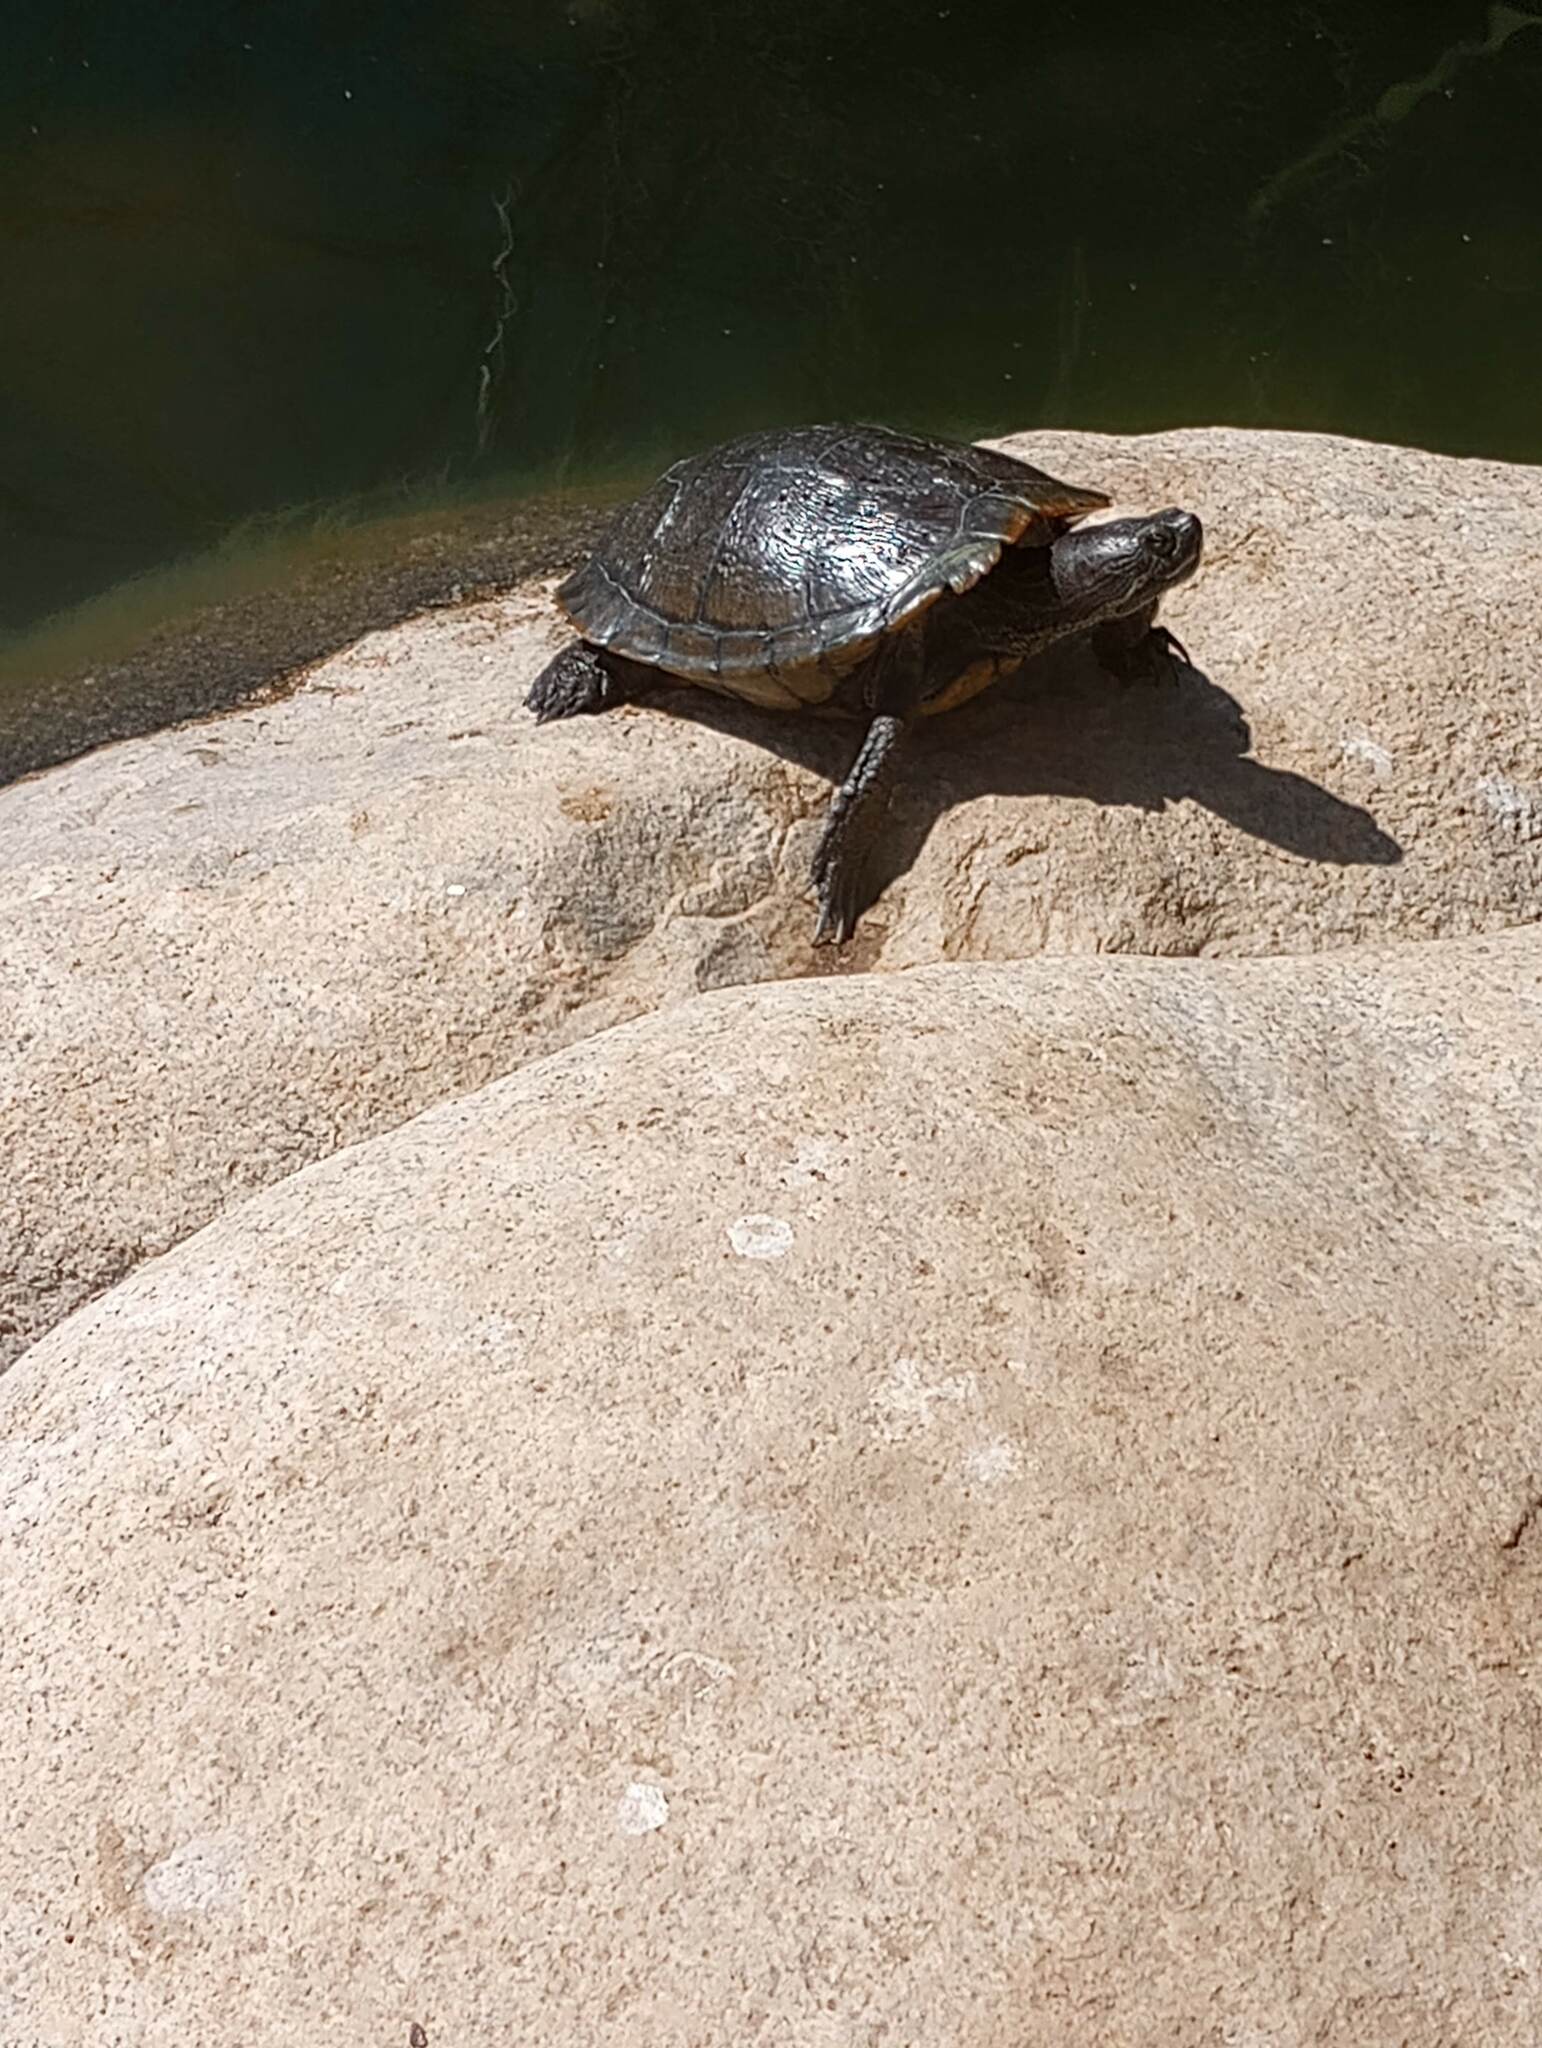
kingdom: Animalia
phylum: Chordata
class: Testudines
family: Emydidae
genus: Trachemys
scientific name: Trachemys scripta
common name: Slider
